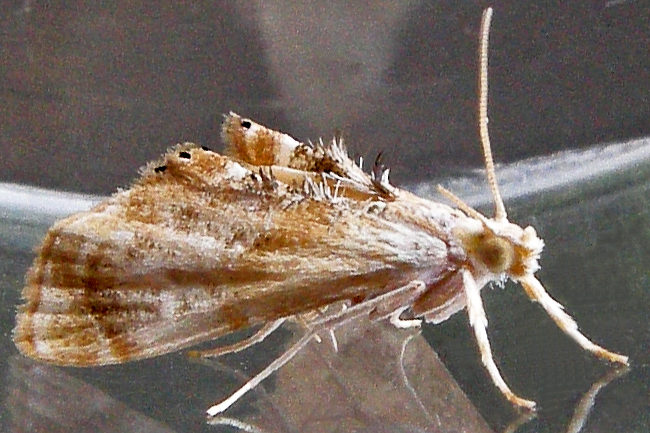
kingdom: Animalia
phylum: Arthropoda
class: Insecta
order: Lepidoptera
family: Crambidae
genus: Dicymolomia
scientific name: Dicymolomia julianalis
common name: Julia's dicymolomia moth
